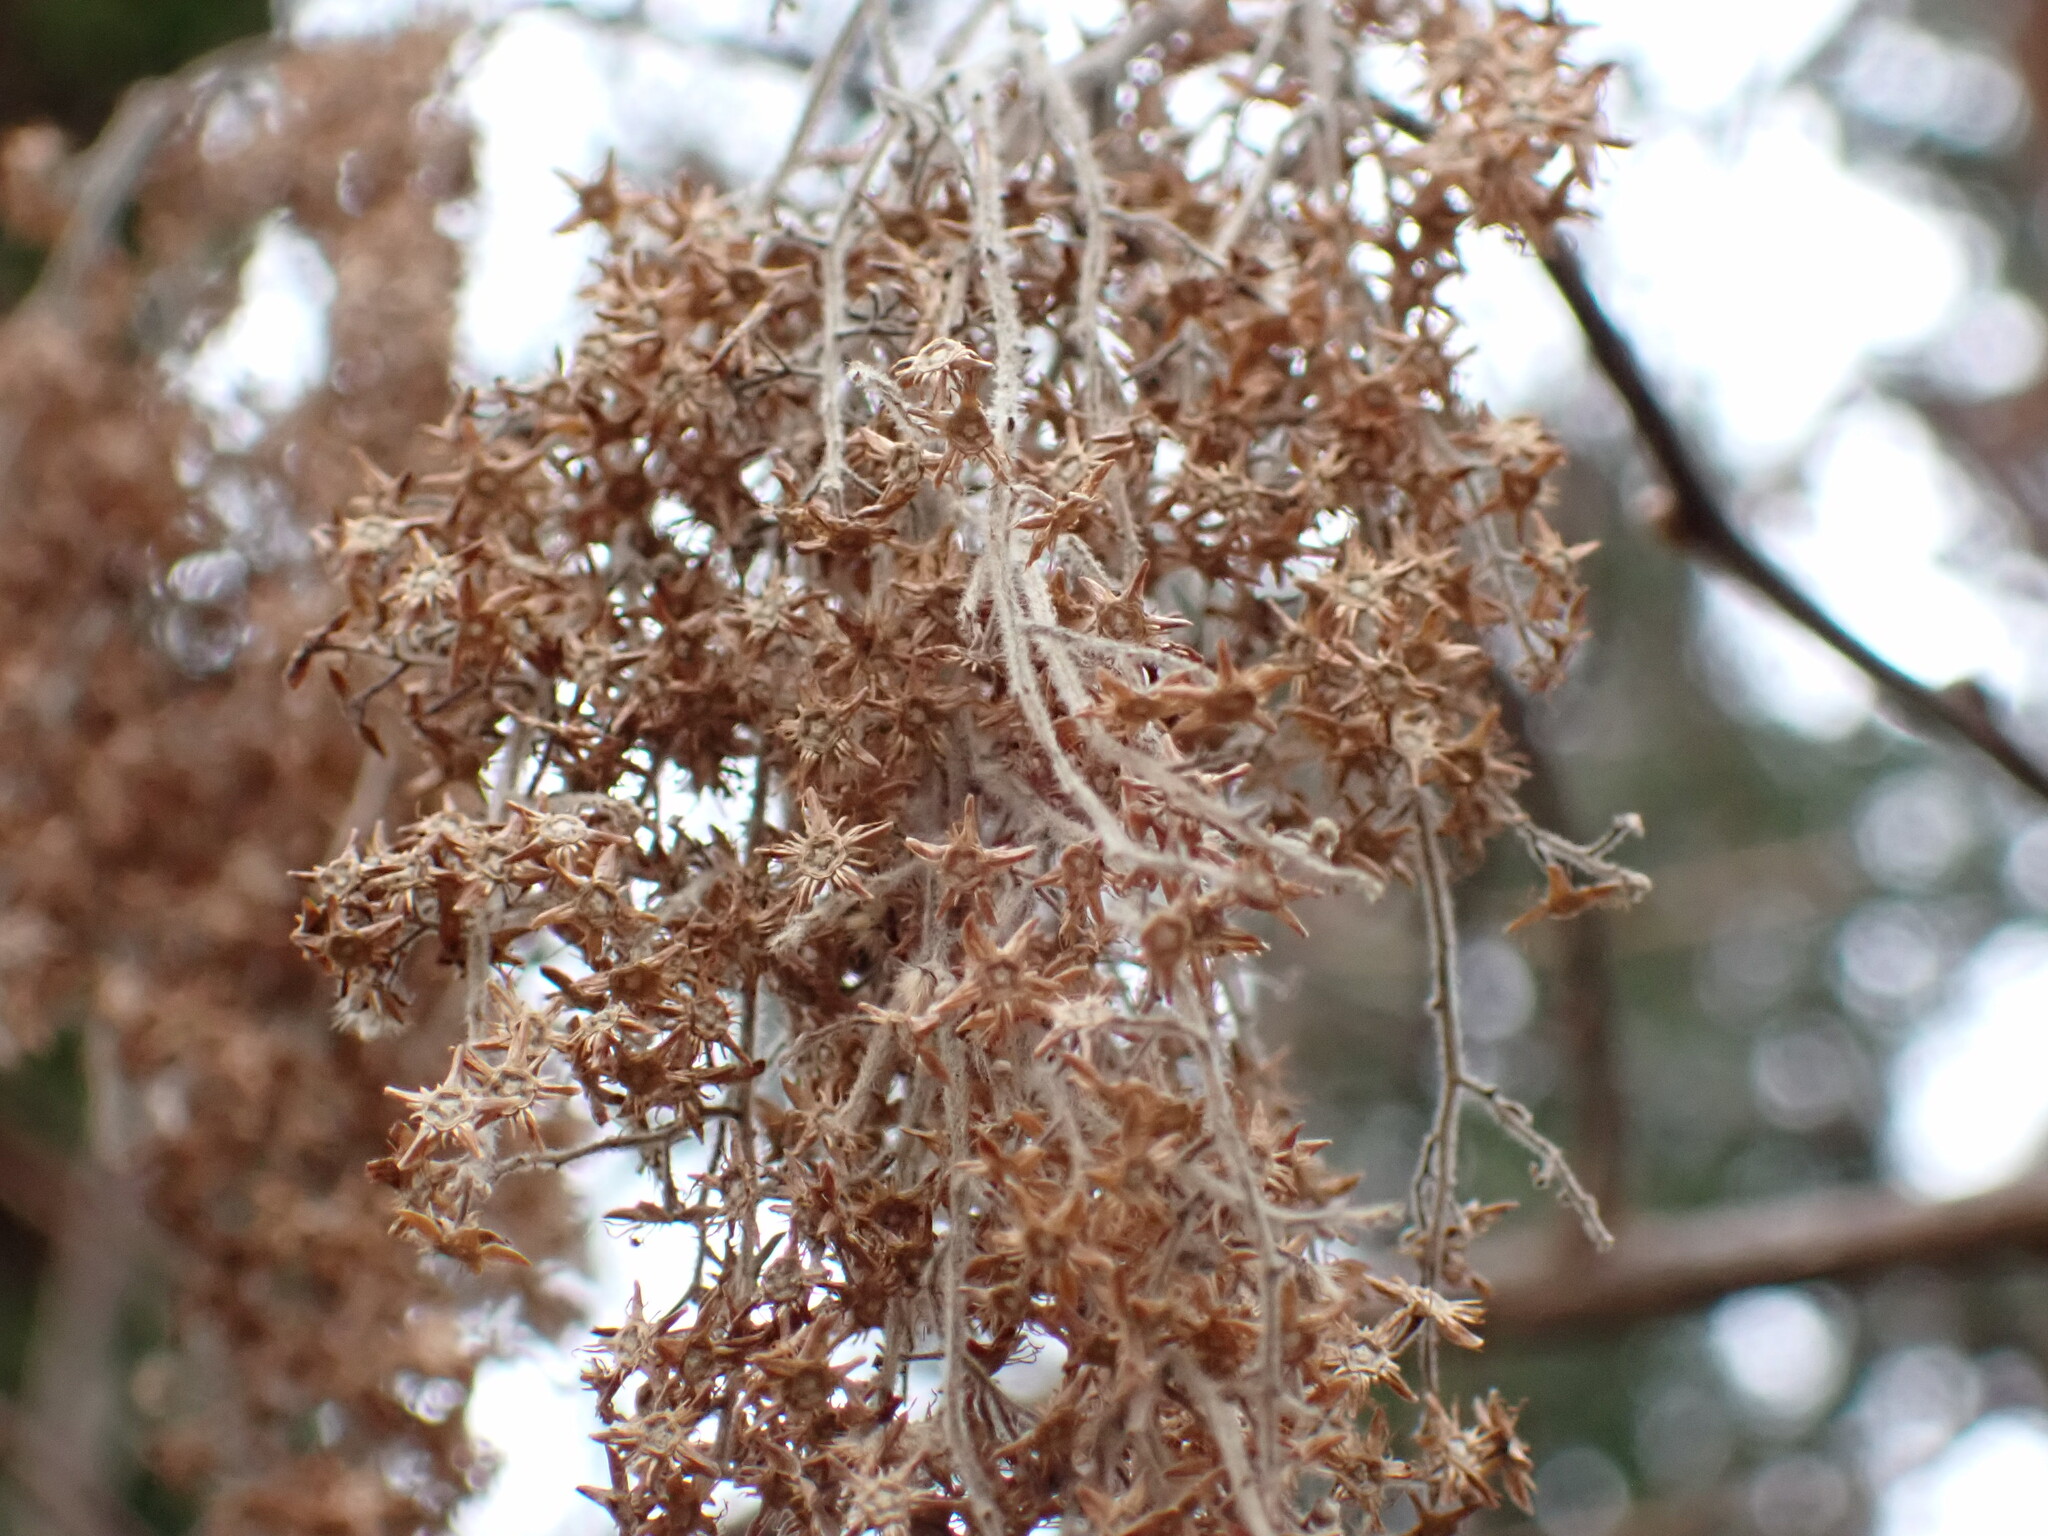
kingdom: Plantae
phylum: Tracheophyta
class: Magnoliopsida
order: Rosales
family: Rosaceae
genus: Holodiscus
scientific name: Holodiscus discolor
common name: Oceanspray
